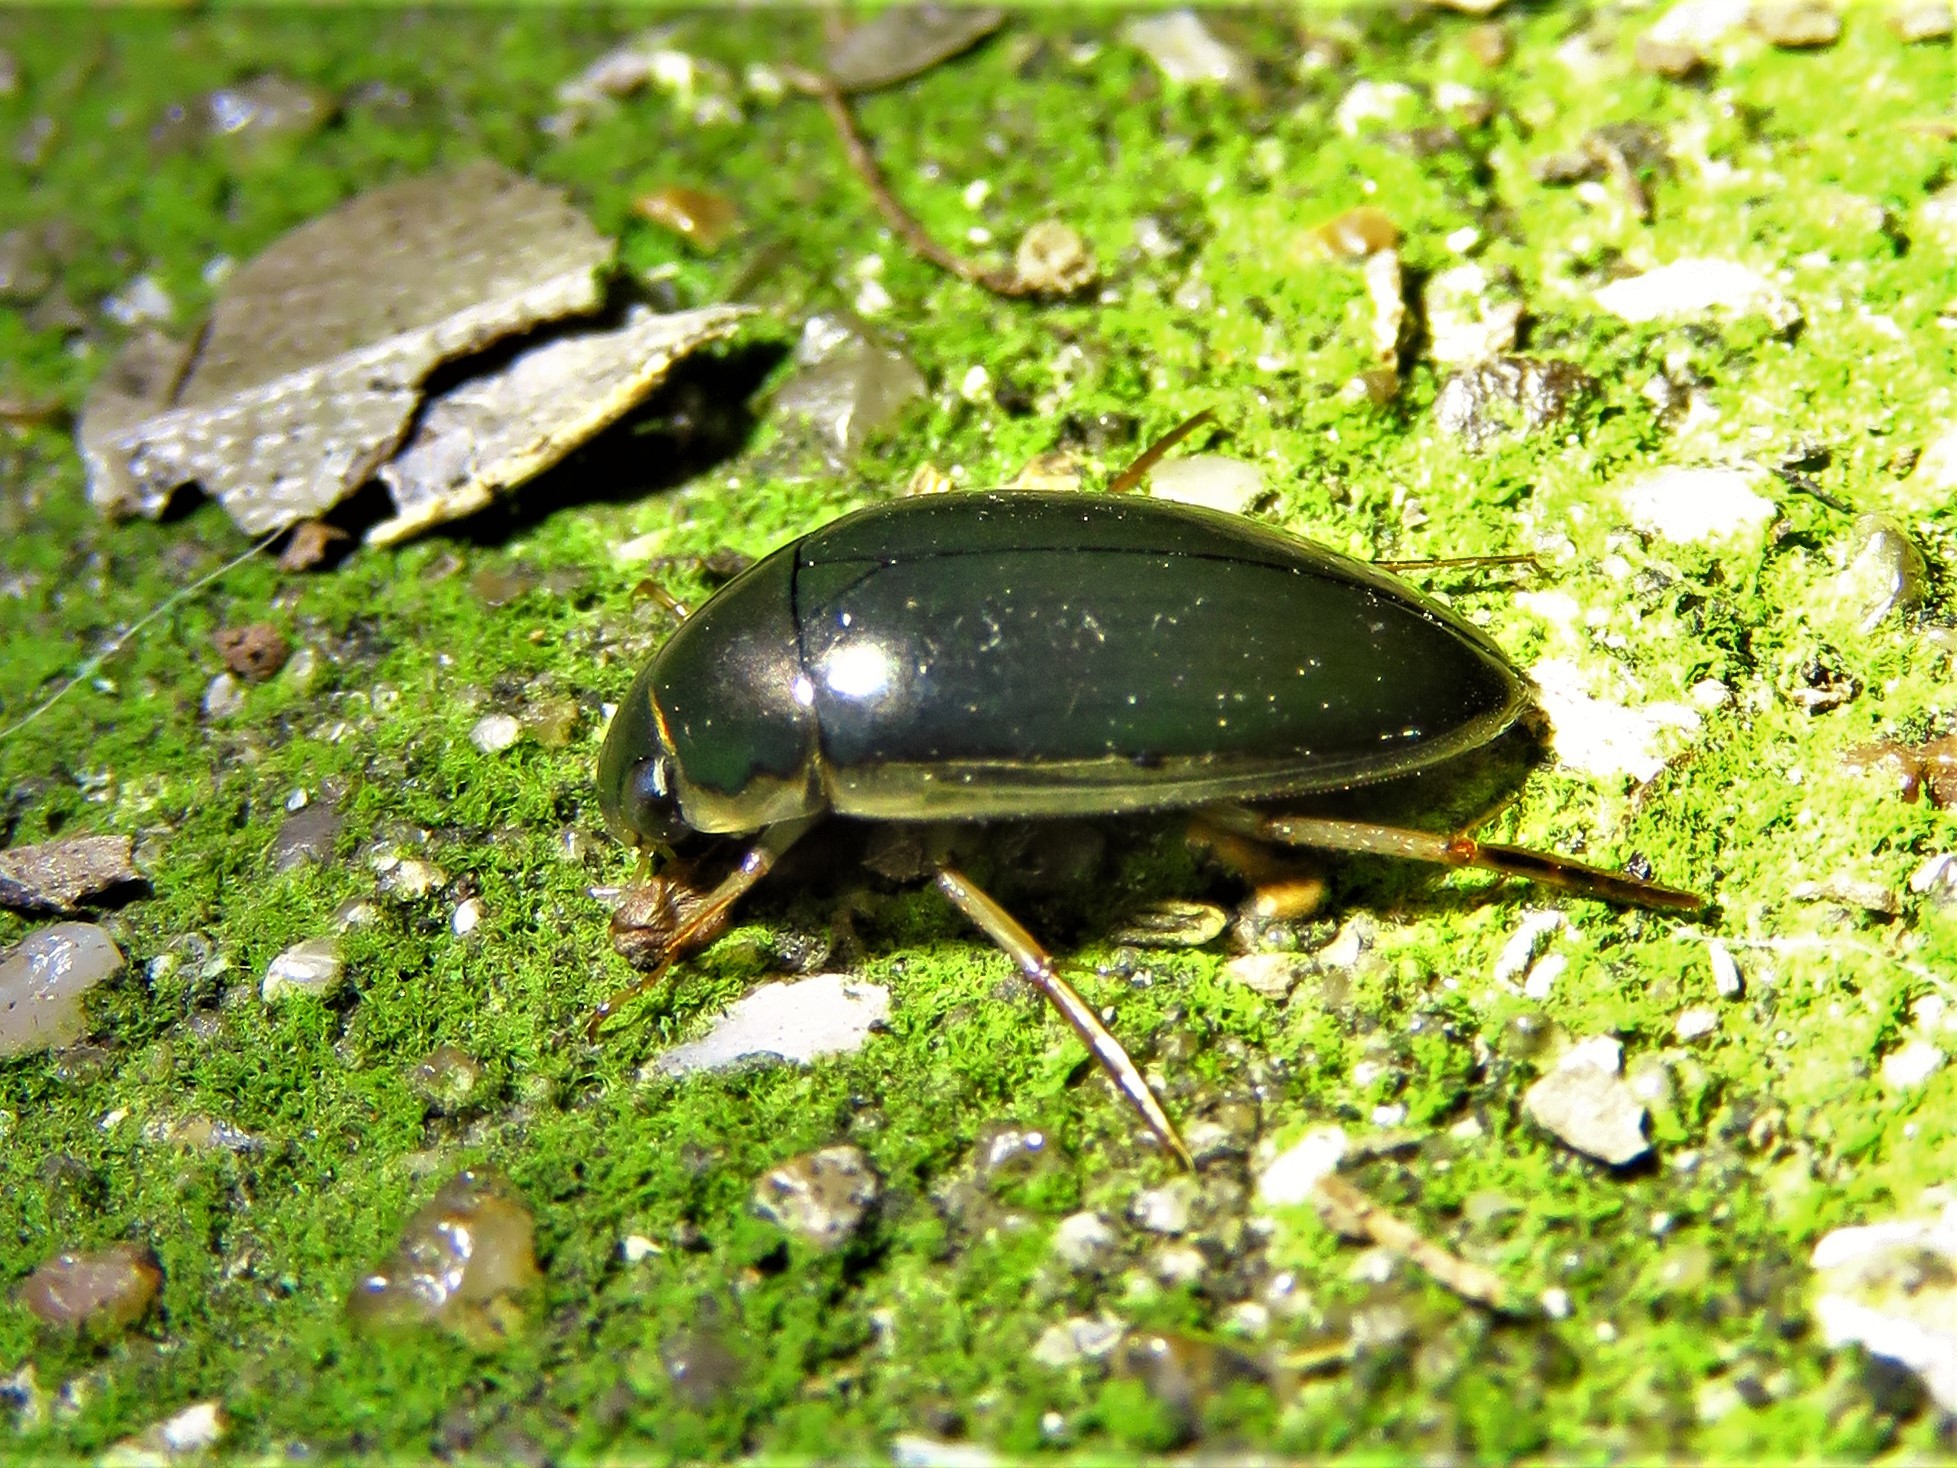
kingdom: Animalia
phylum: Arthropoda
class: Insecta
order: Coleoptera
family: Hydrophilidae
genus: Tropisternus
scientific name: Tropisternus lateralis
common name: Lateral-banded water scavenger beetle
